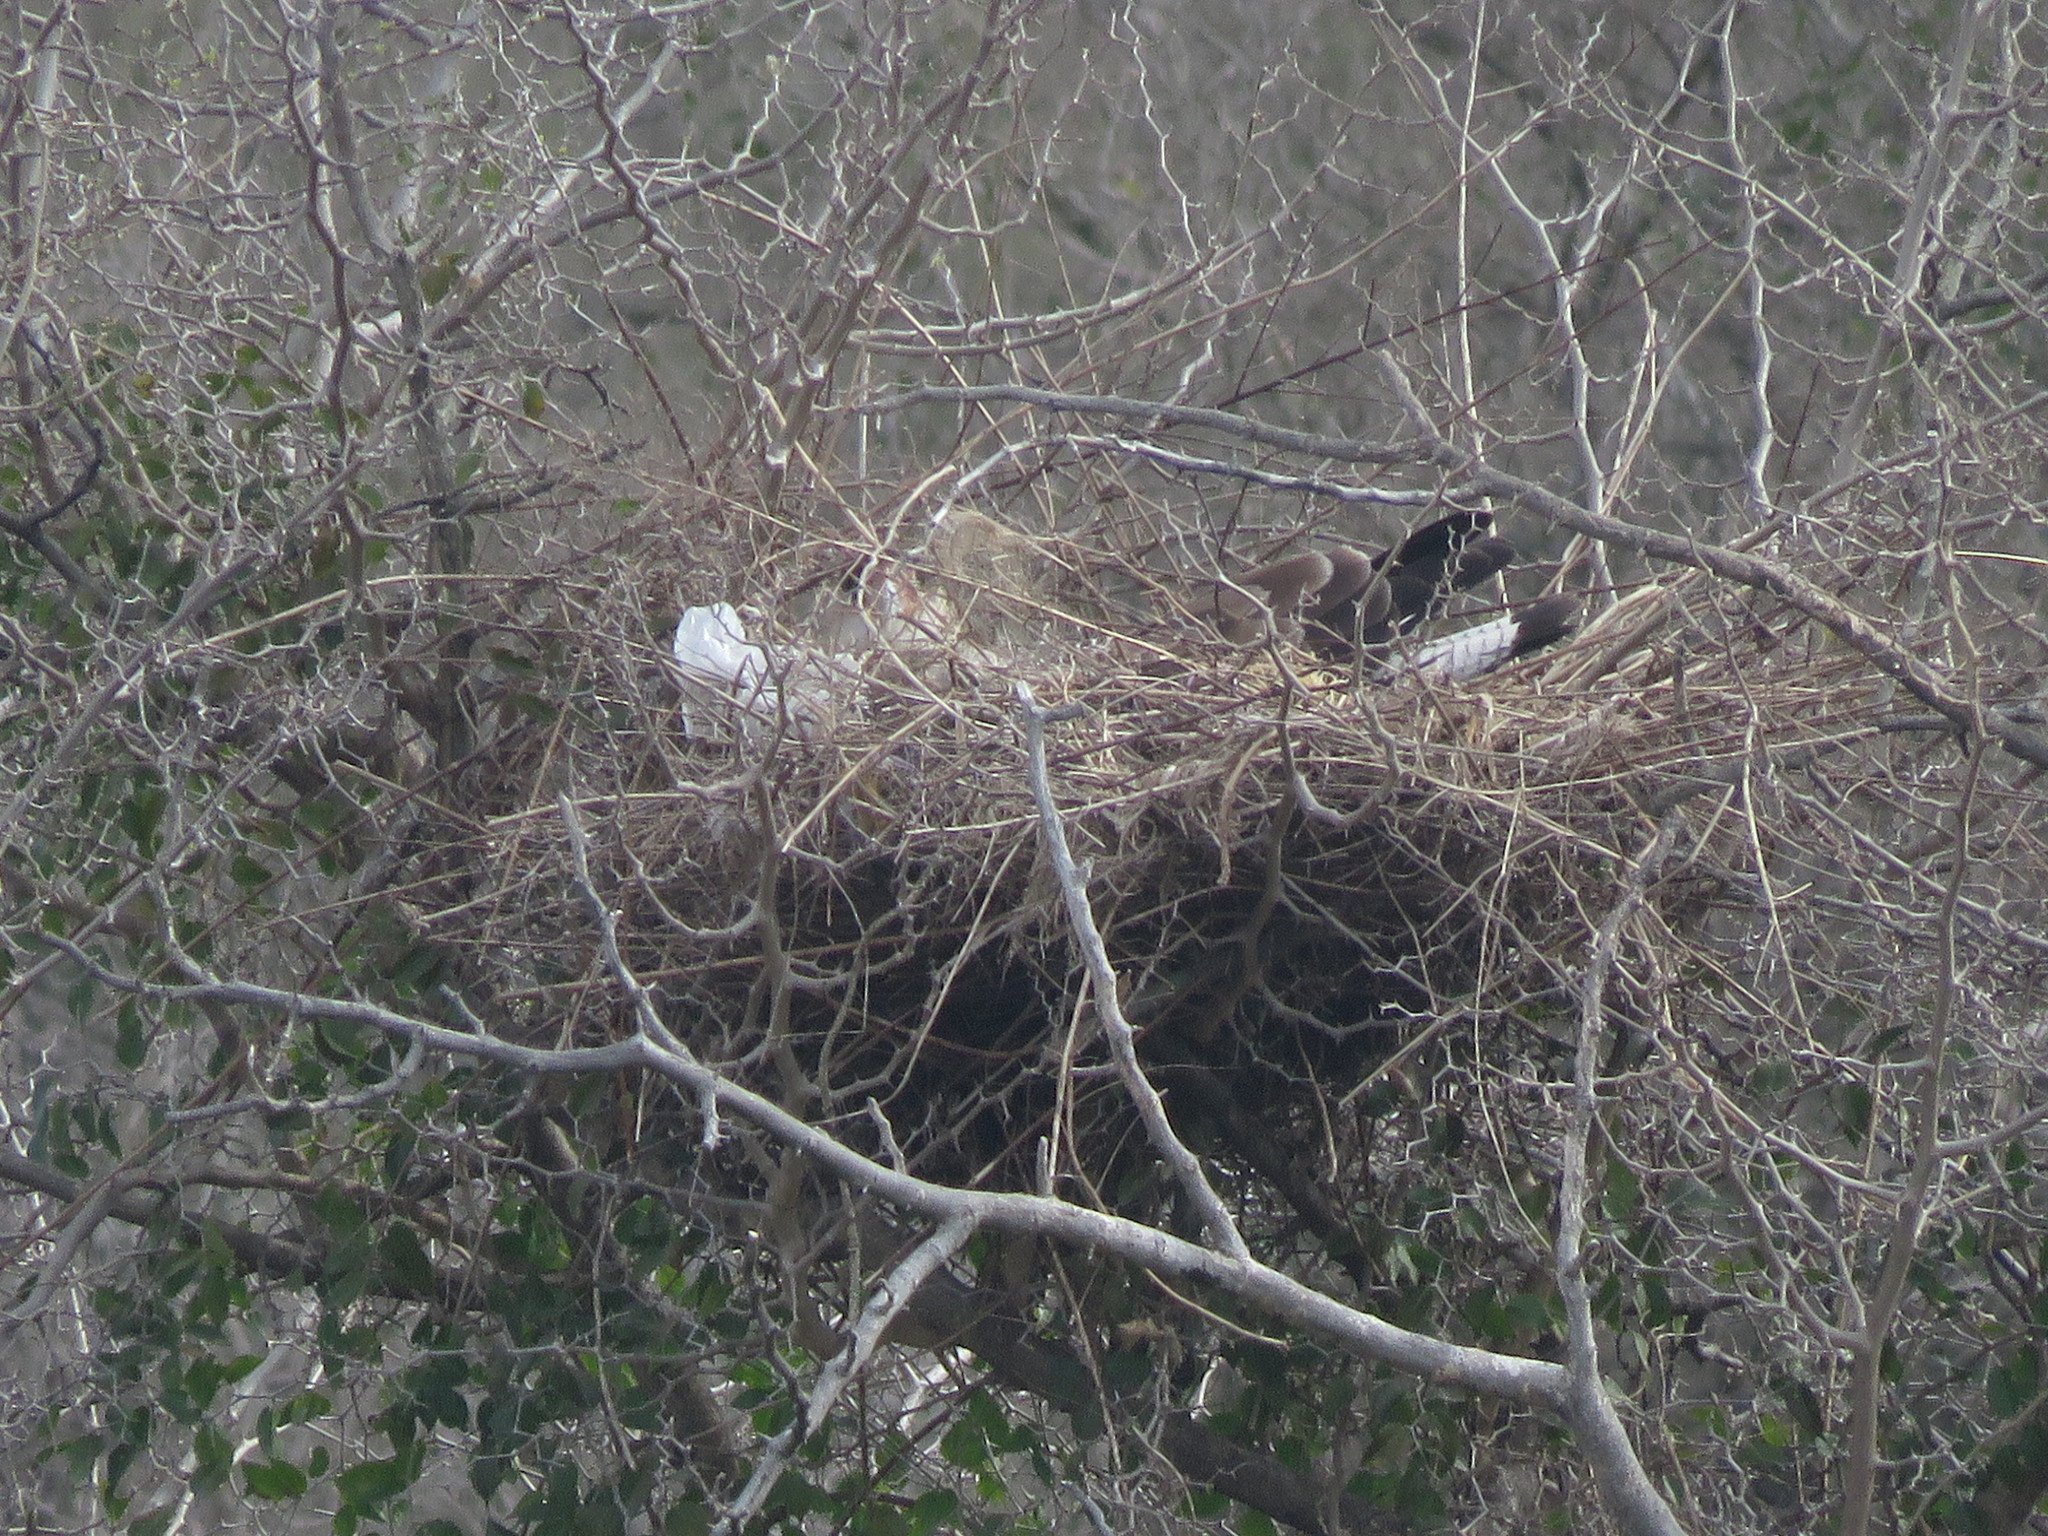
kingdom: Animalia
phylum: Chordata
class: Aves
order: Falconiformes
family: Falconidae
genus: Caracara
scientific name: Caracara plancus
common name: Southern caracara
